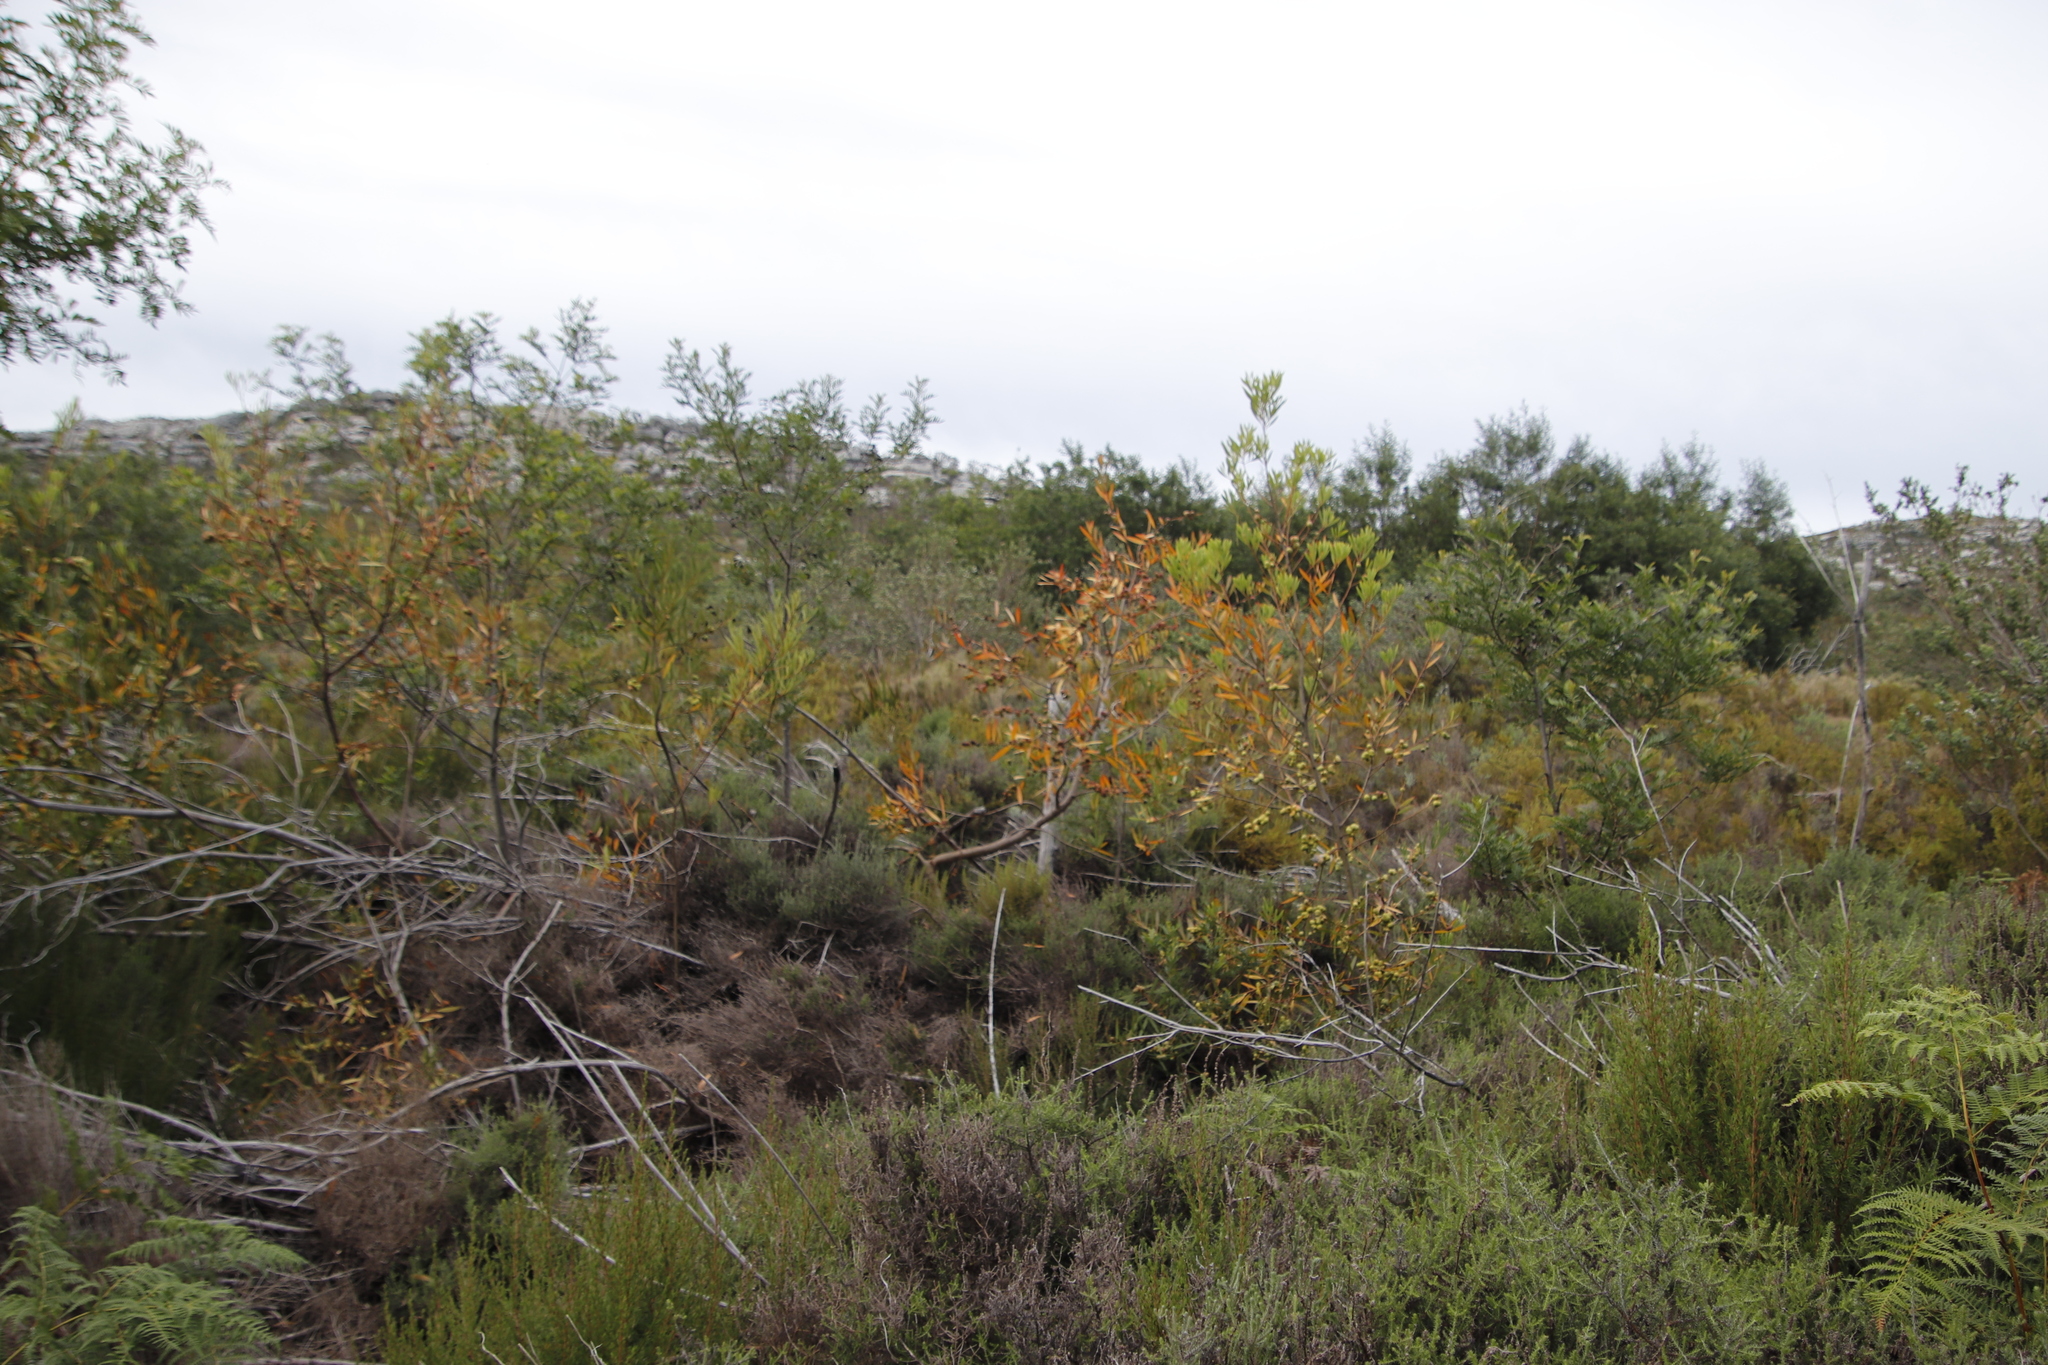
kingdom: Plantae
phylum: Tracheophyta
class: Magnoliopsida
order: Fabales
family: Fabaceae
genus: Acacia
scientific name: Acacia longifolia
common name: Sydney golden wattle
